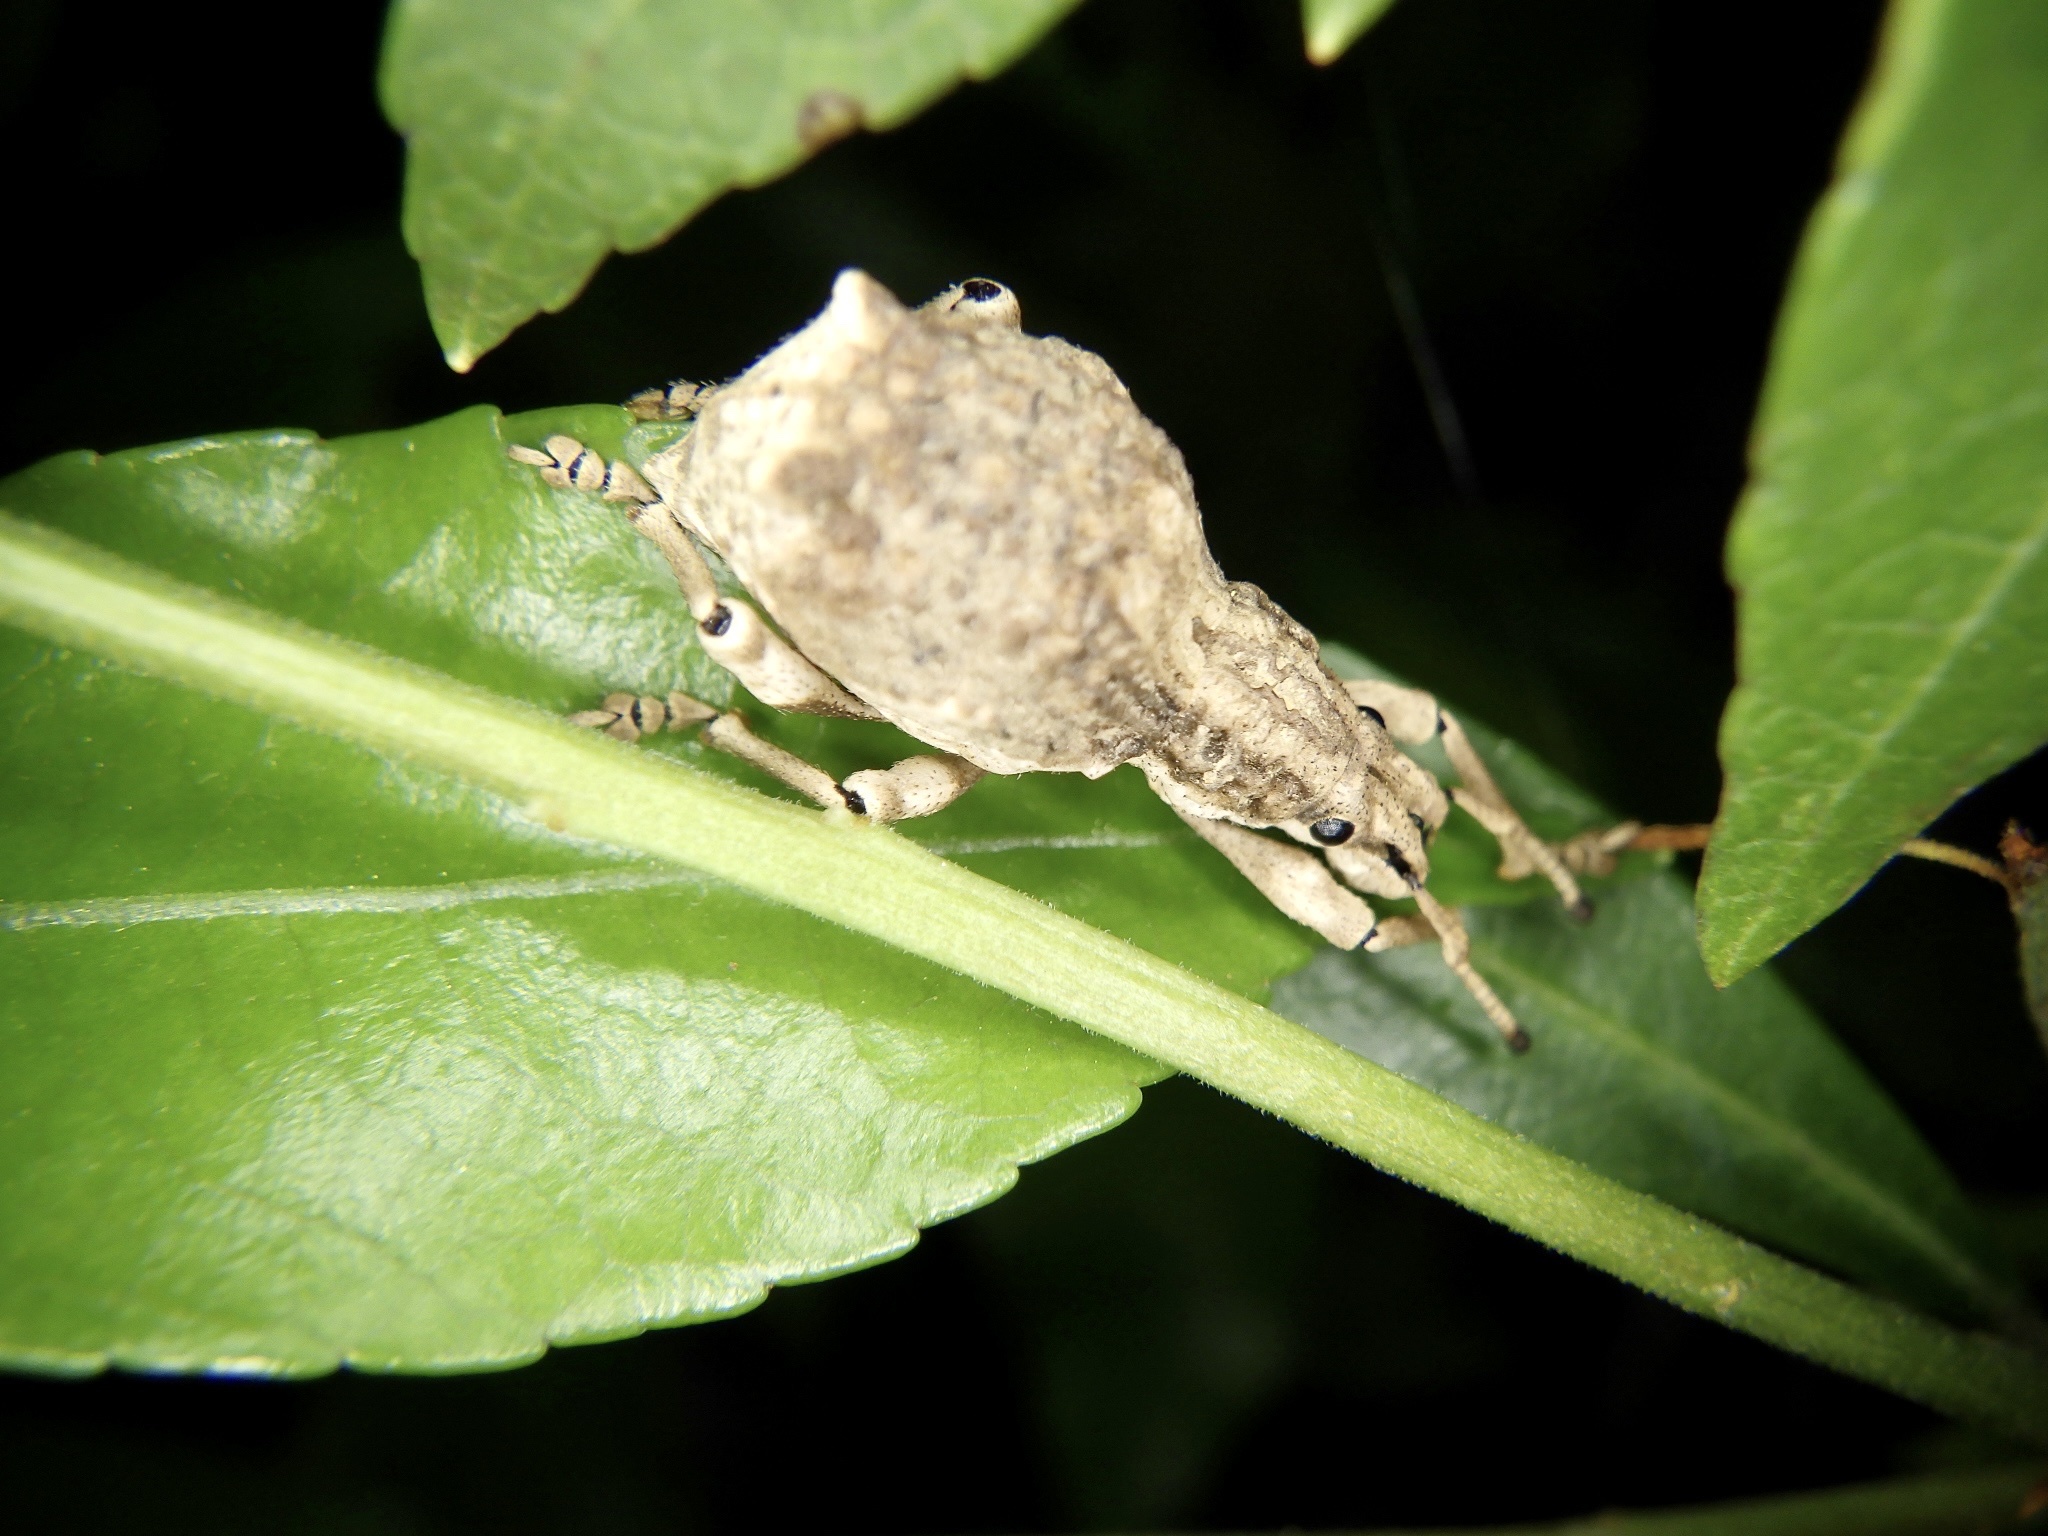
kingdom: Animalia
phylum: Arthropoda
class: Insecta
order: Coleoptera
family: Curculionidae
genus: Episomus
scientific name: Episomus turritus
